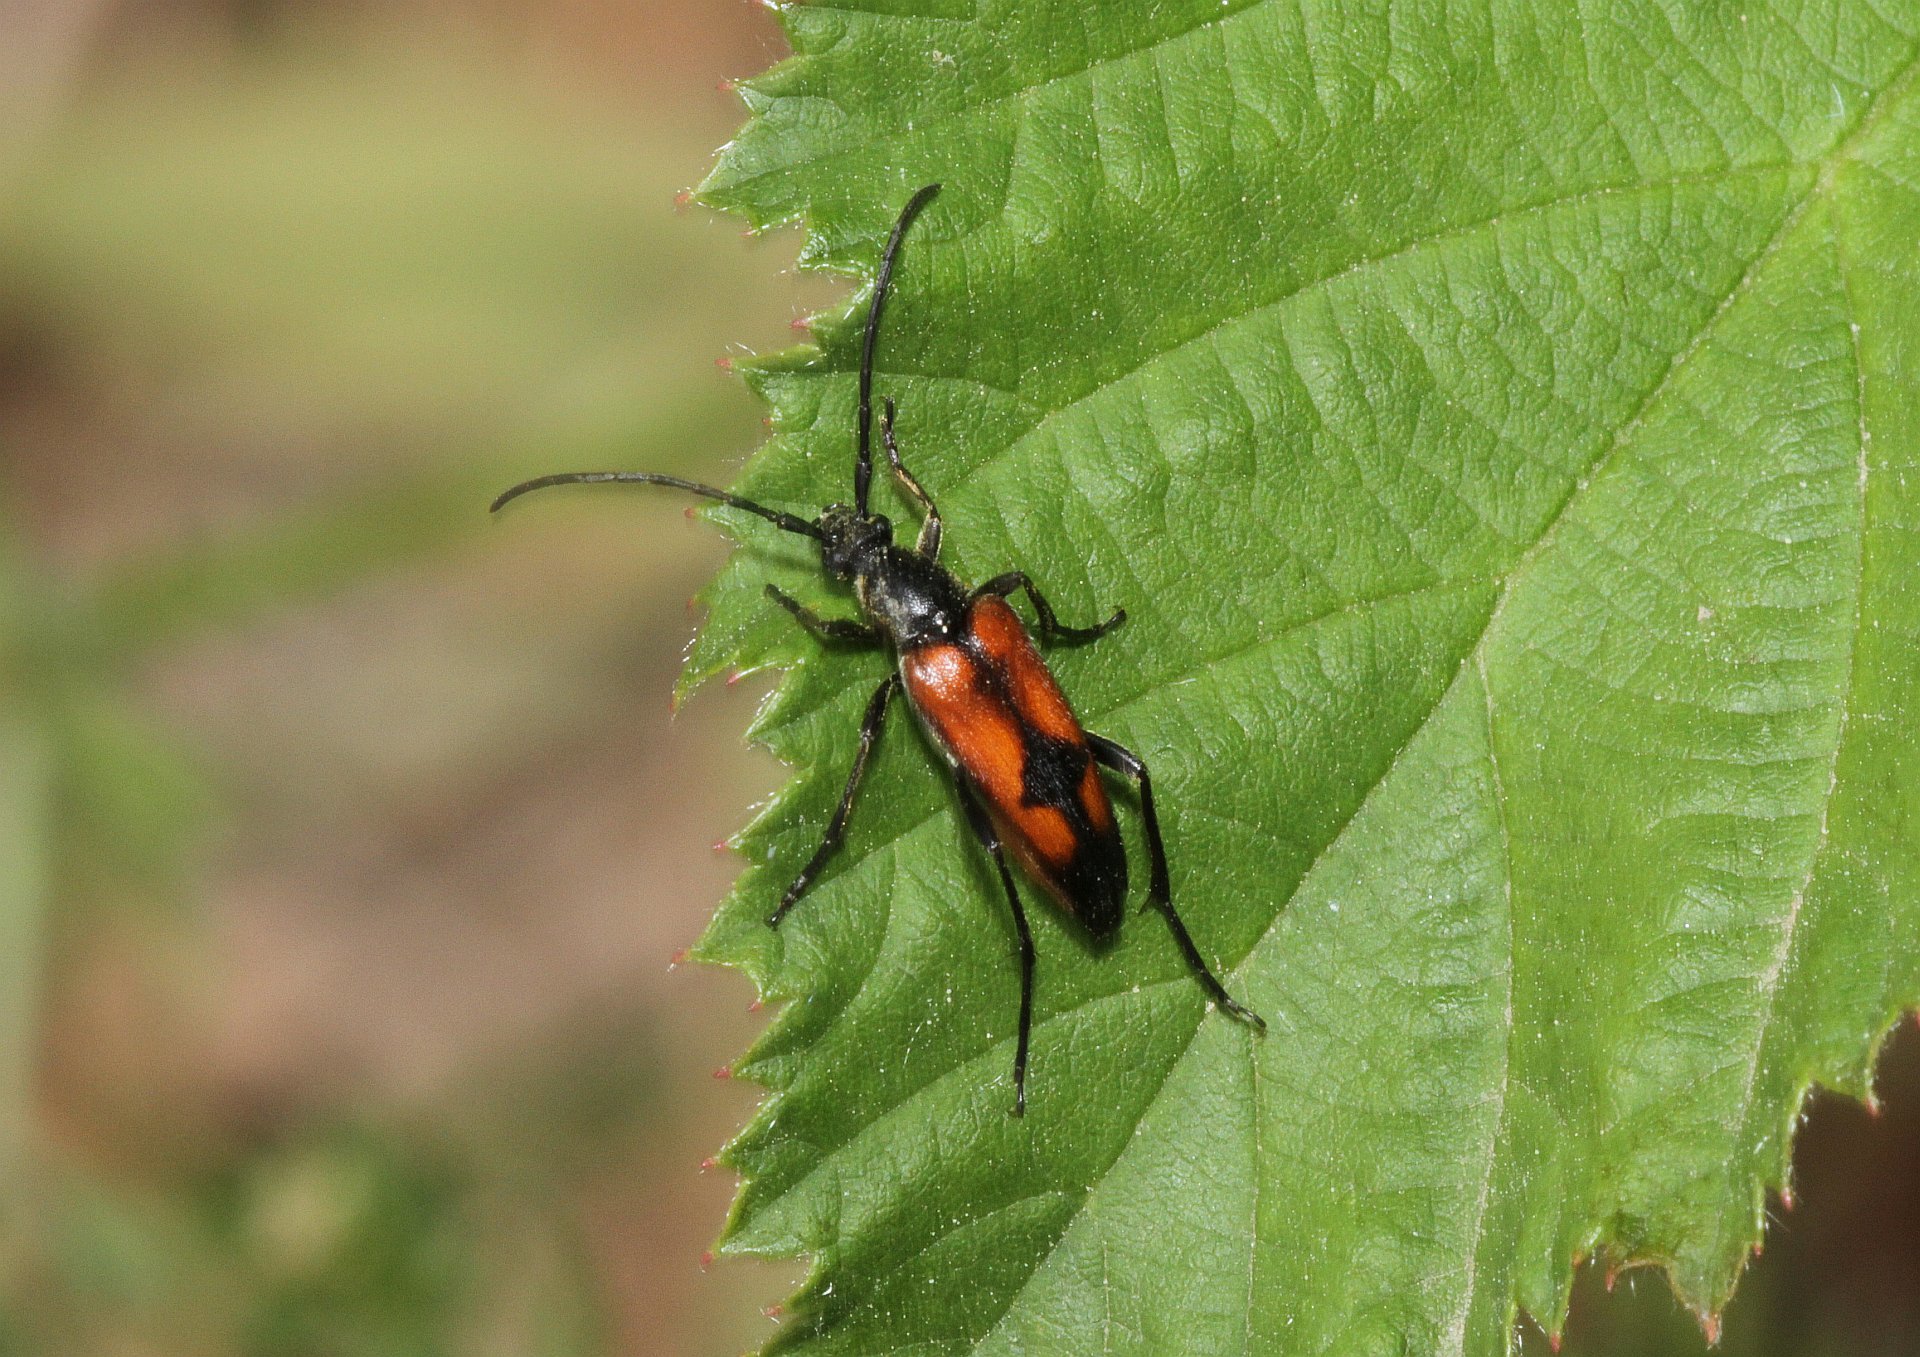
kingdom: Animalia
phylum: Arthropoda
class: Insecta
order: Coleoptera
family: Cerambycidae
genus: Stenurella
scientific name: Stenurella bifasciata
